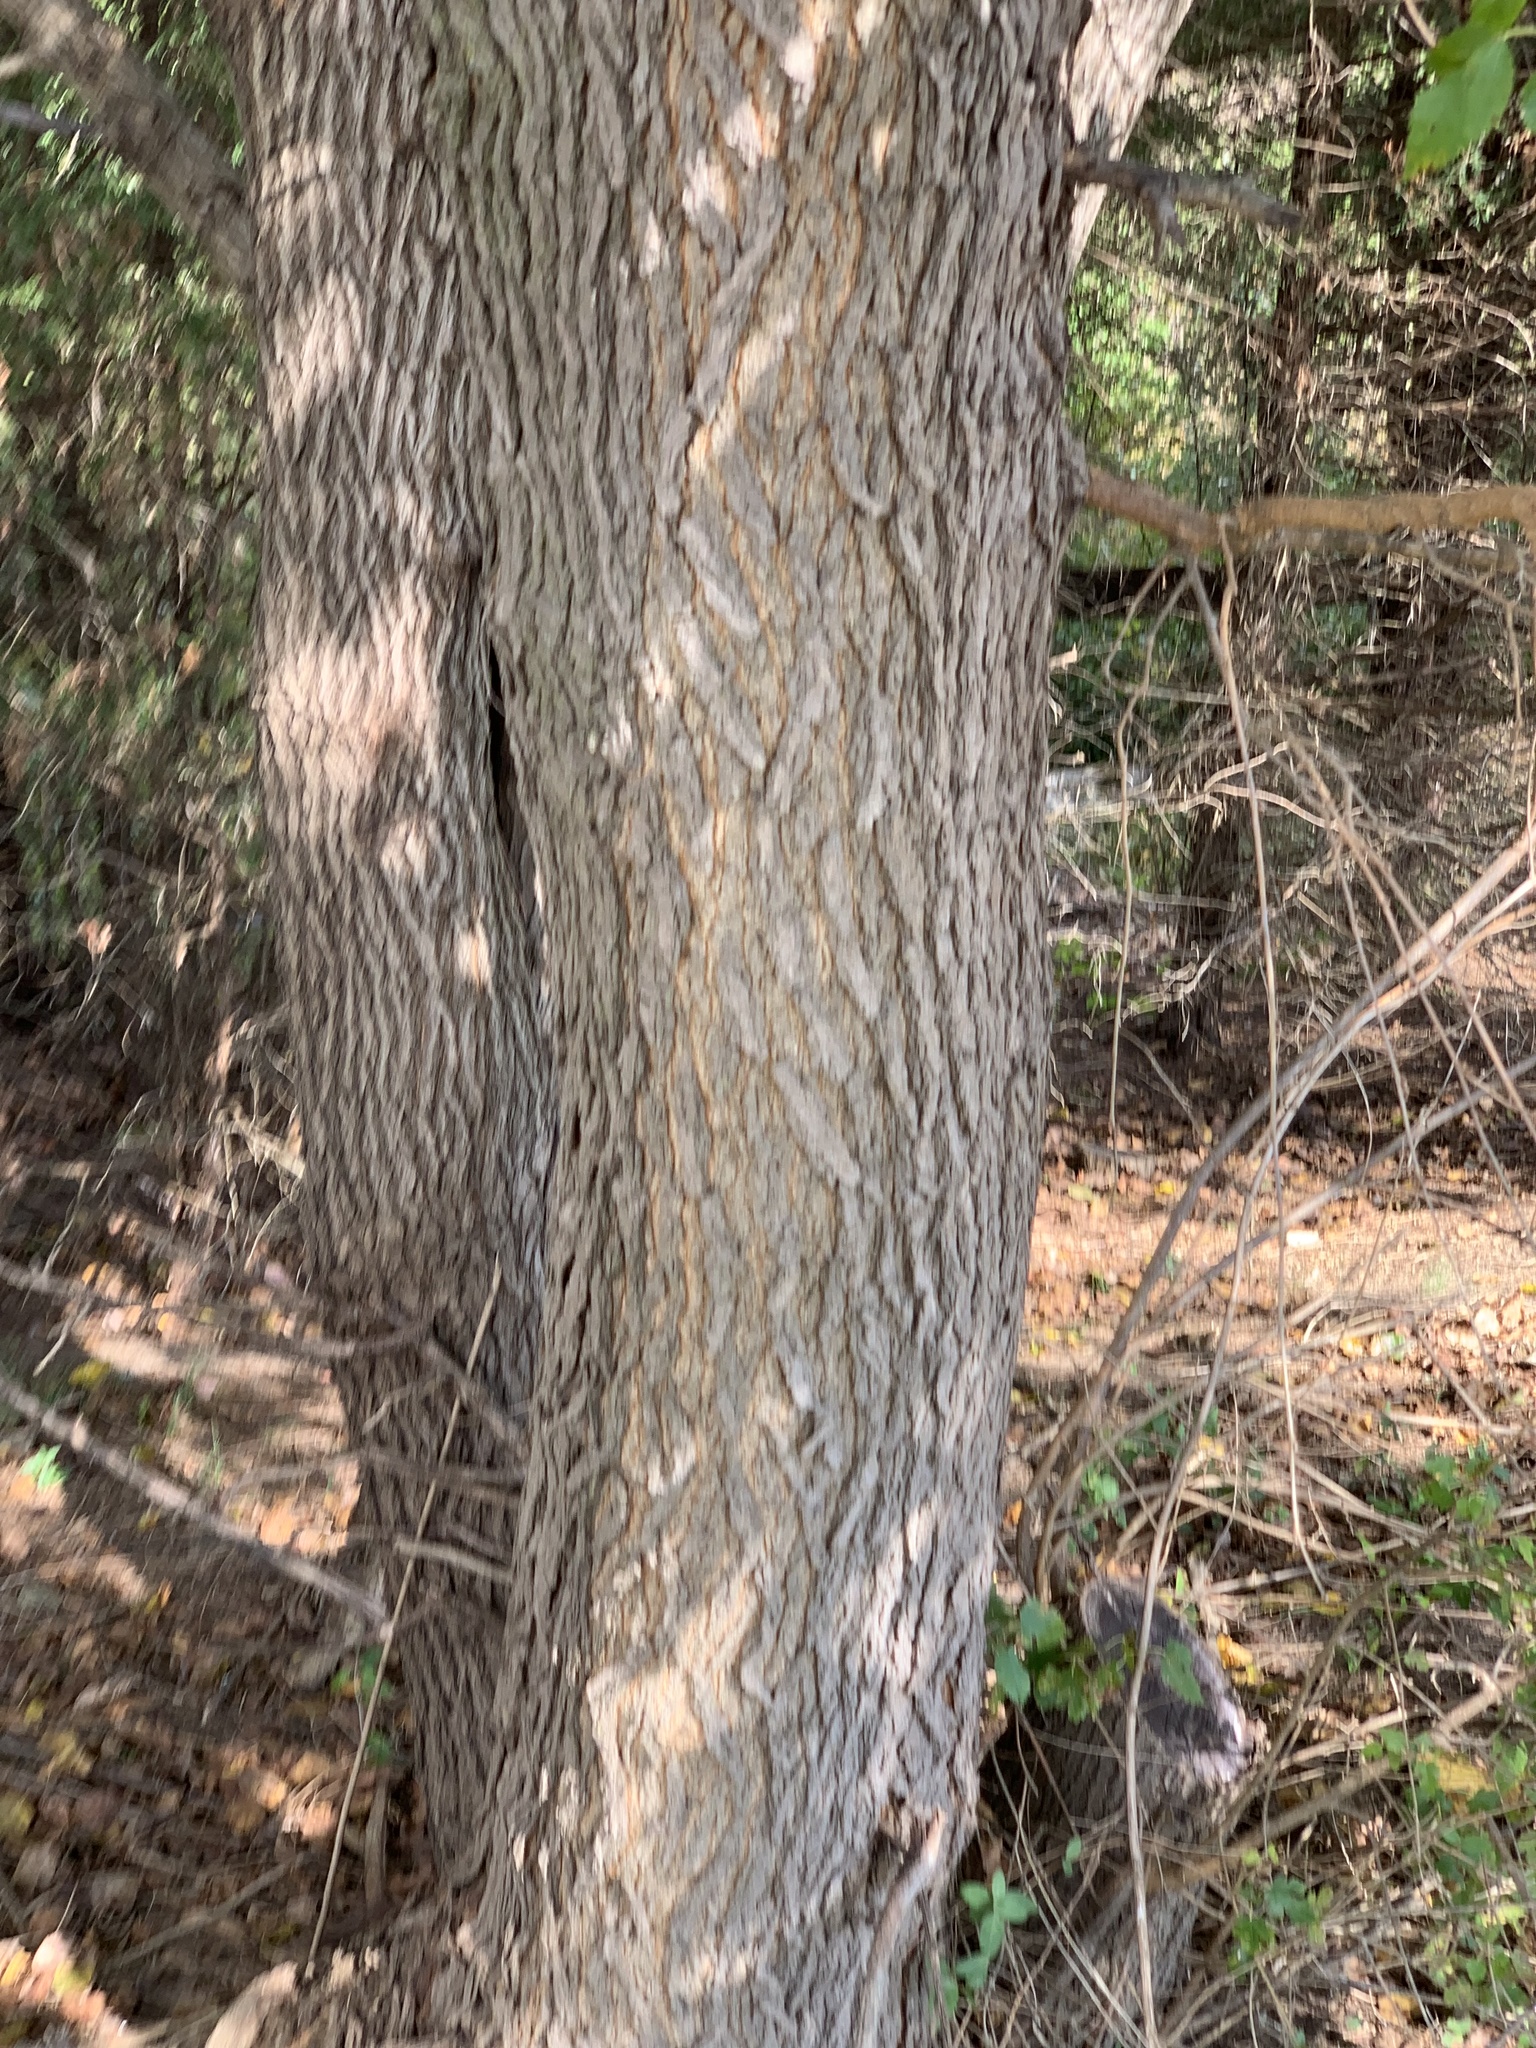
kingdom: Plantae
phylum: Tracheophyta
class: Magnoliopsida
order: Rosales
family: Moraceae
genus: Morus
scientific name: Morus alba
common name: White mulberry
